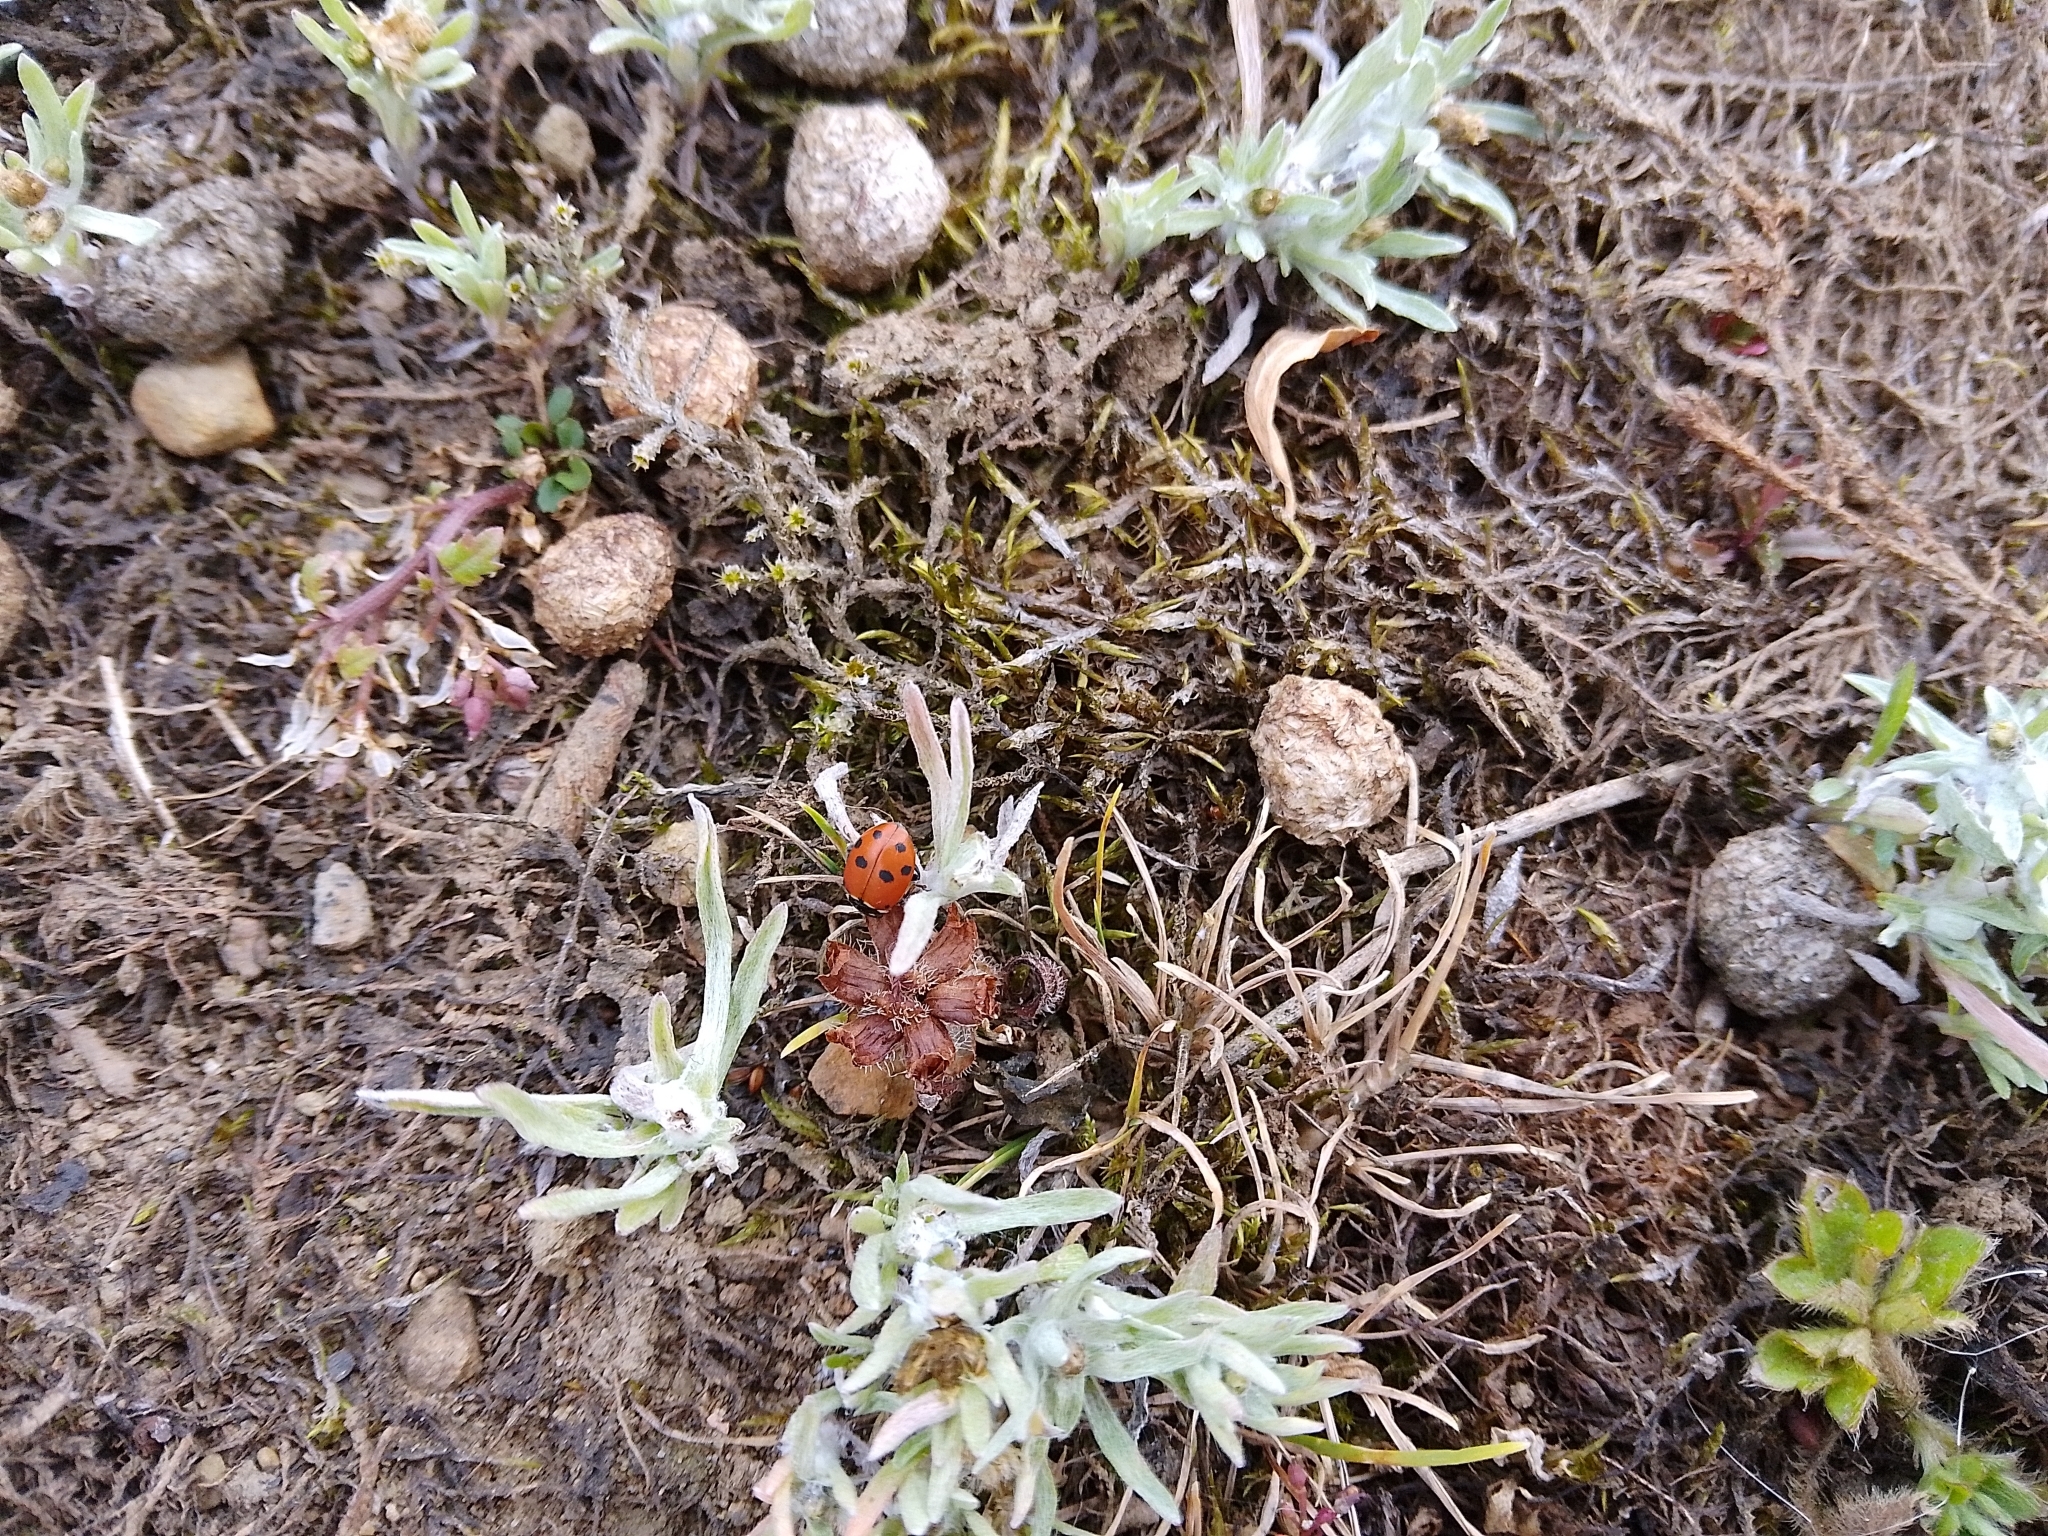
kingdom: Animalia
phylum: Arthropoda
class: Insecta
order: Coleoptera
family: Coccinellidae
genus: Hippodamia
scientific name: Hippodamia variegata
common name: Ladybird beetle
